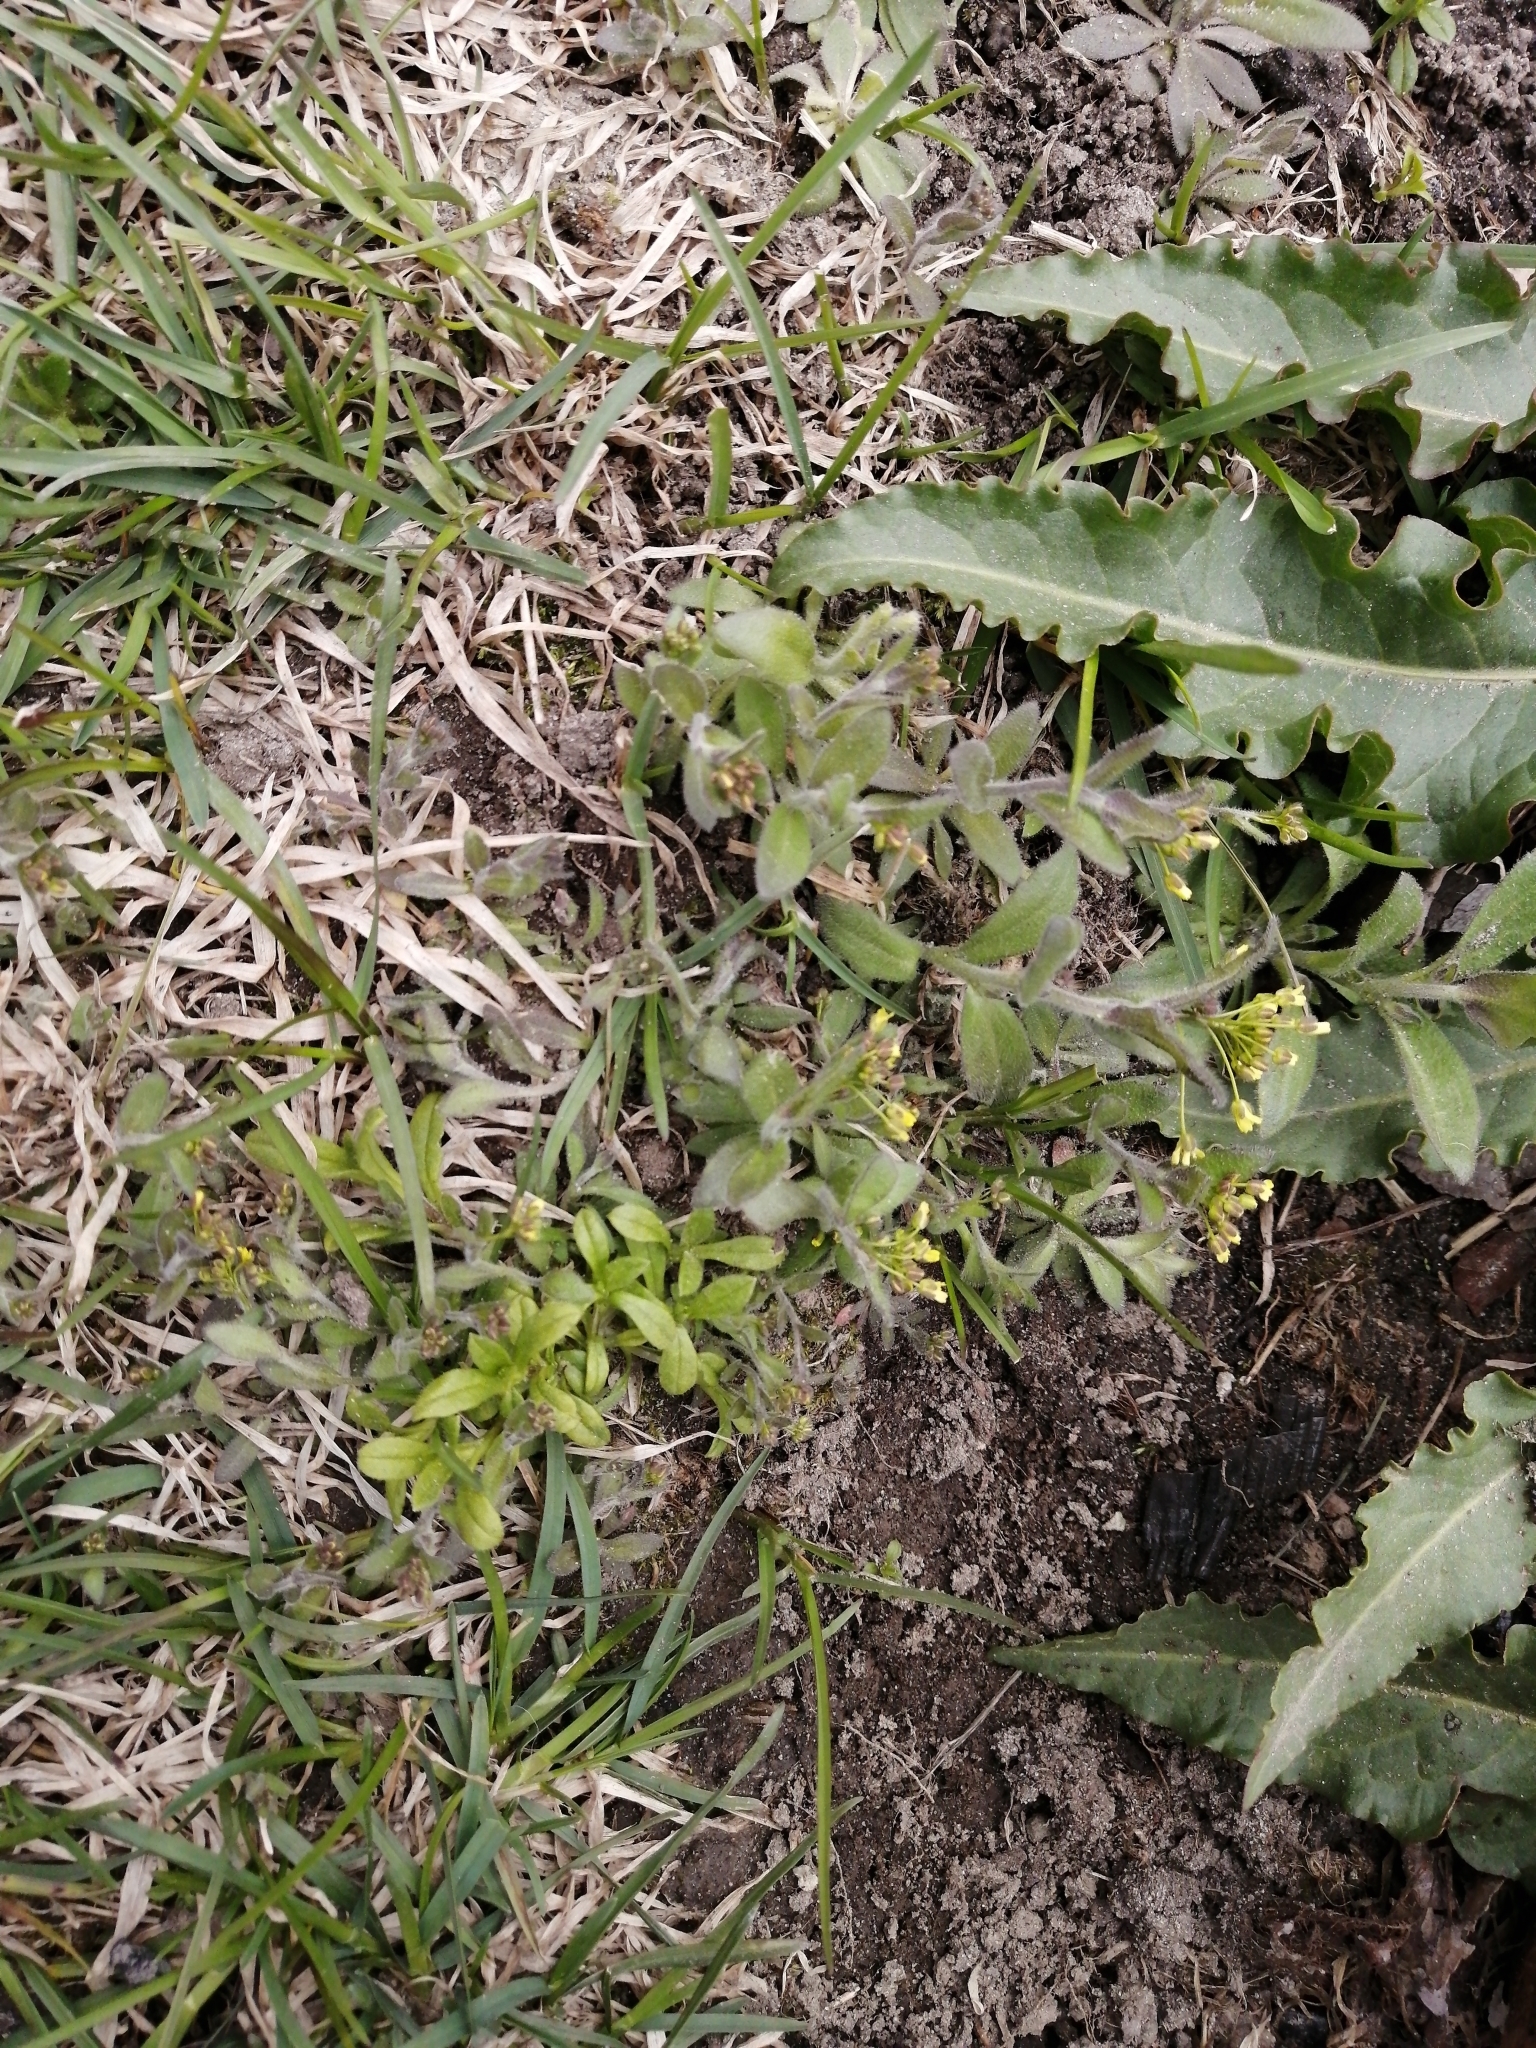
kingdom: Plantae
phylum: Tracheophyta
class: Magnoliopsida
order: Brassicales
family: Brassicaceae
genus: Draba
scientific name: Draba nemorosa
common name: Wood whitlow-grass
